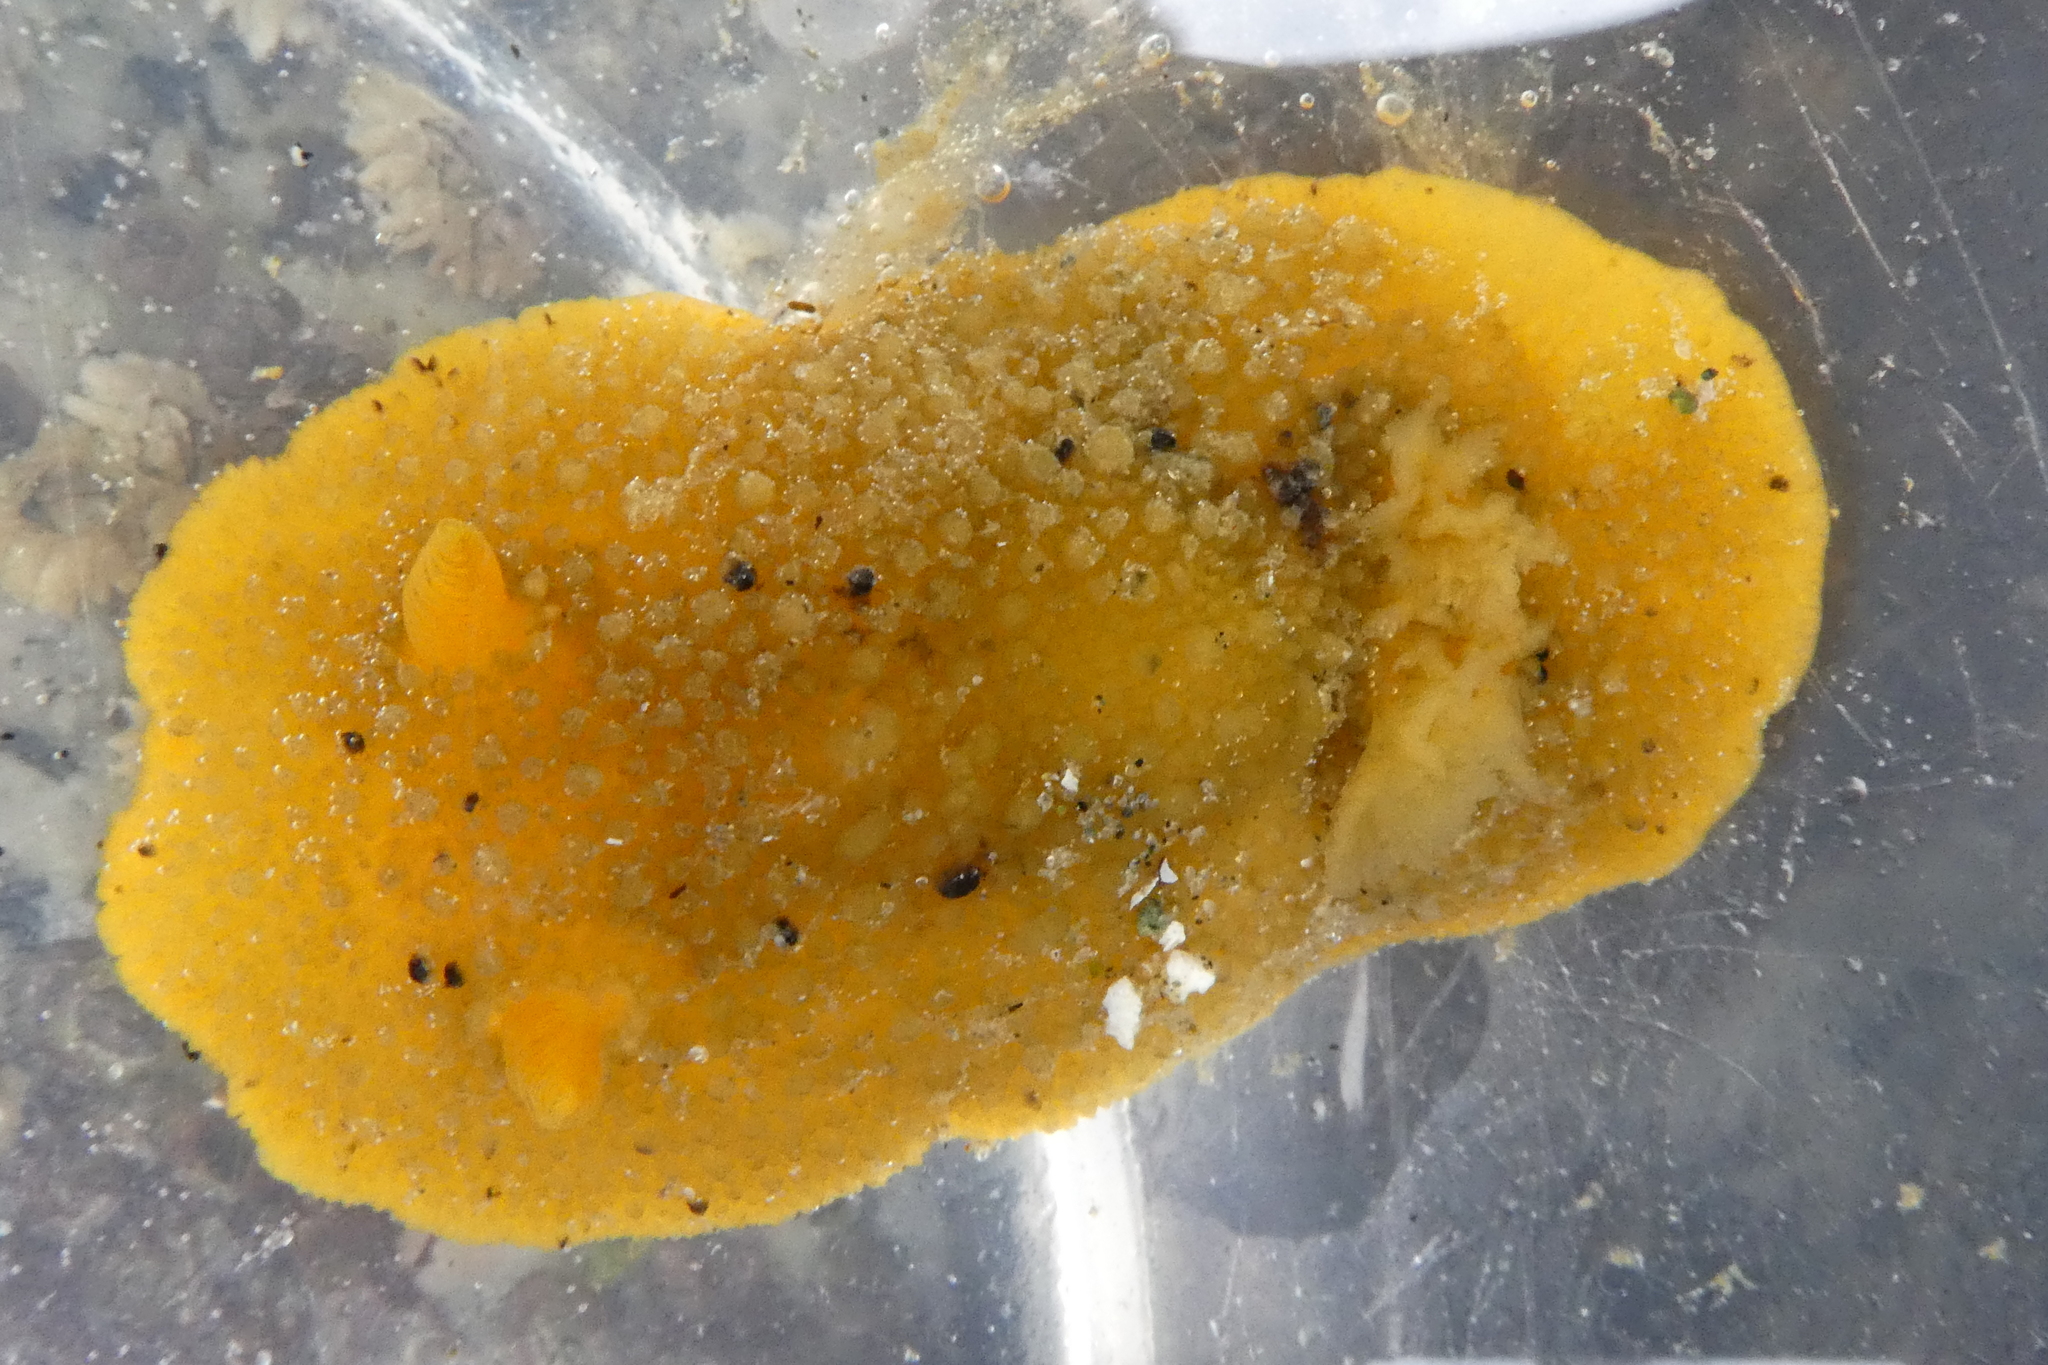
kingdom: Animalia
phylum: Mollusca
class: Gastropoda
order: Nudibranchia
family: Dorididae
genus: Doris
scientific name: Doris montereyensis
